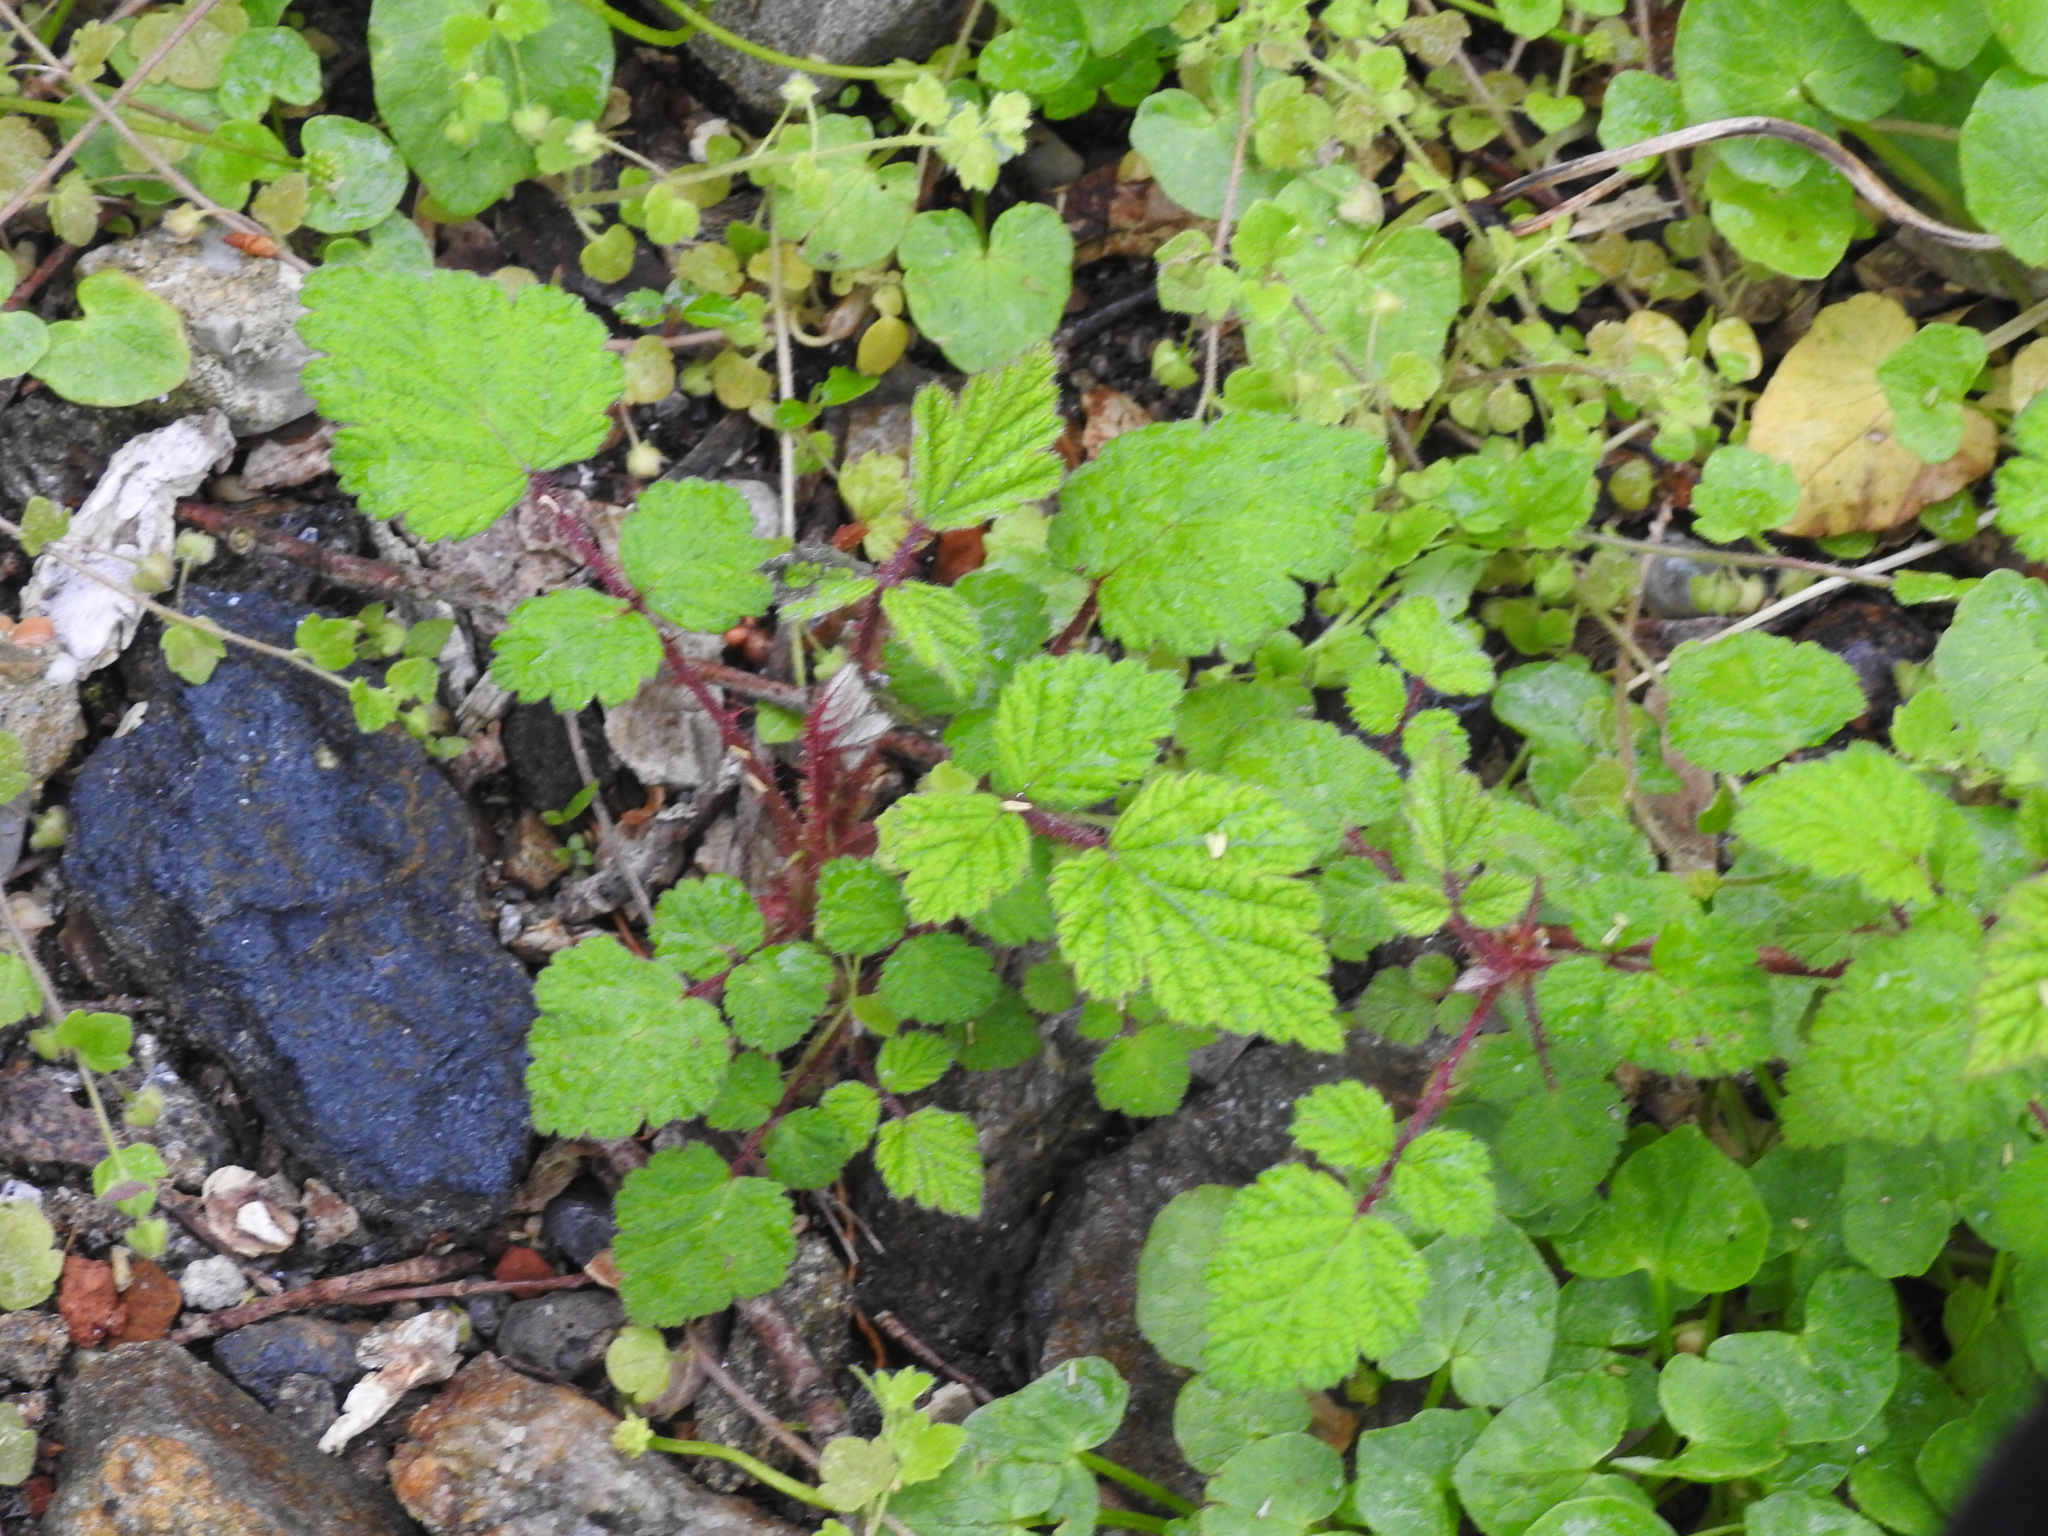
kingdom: Plantae
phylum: Tracheophyta
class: Magnoliopsida
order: Rosales
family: Rosaceae
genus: Rubus
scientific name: Rubus phoenicolasius
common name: Japanese wineberry
